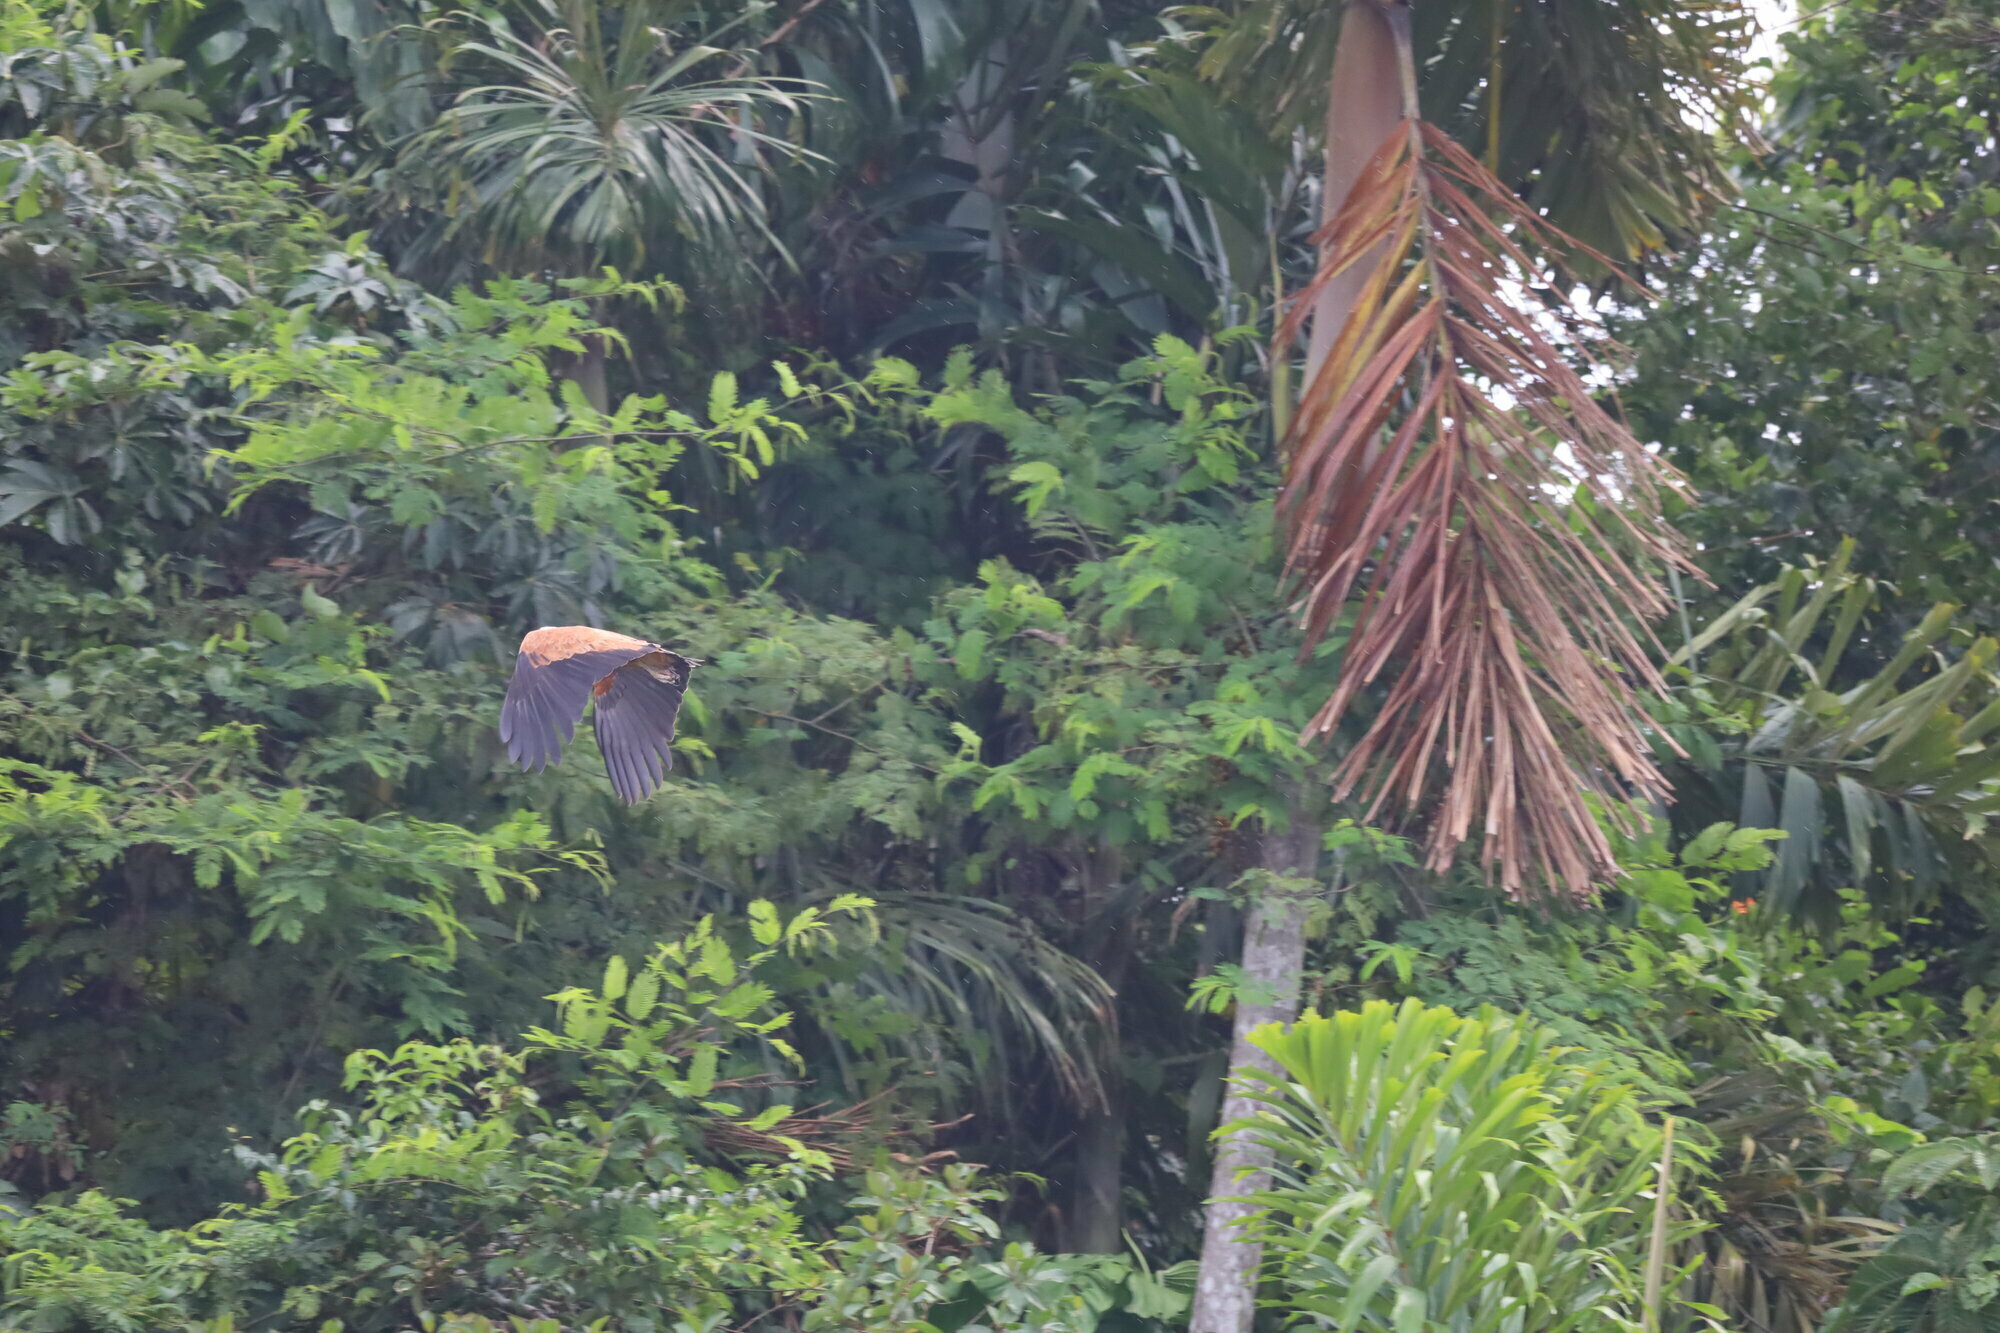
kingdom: Animalia
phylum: Chordata
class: Aves
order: Accipitriformes
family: Accipitridae
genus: Busarellus
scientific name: Busarellus nigricollis
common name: Black-collared hawk
